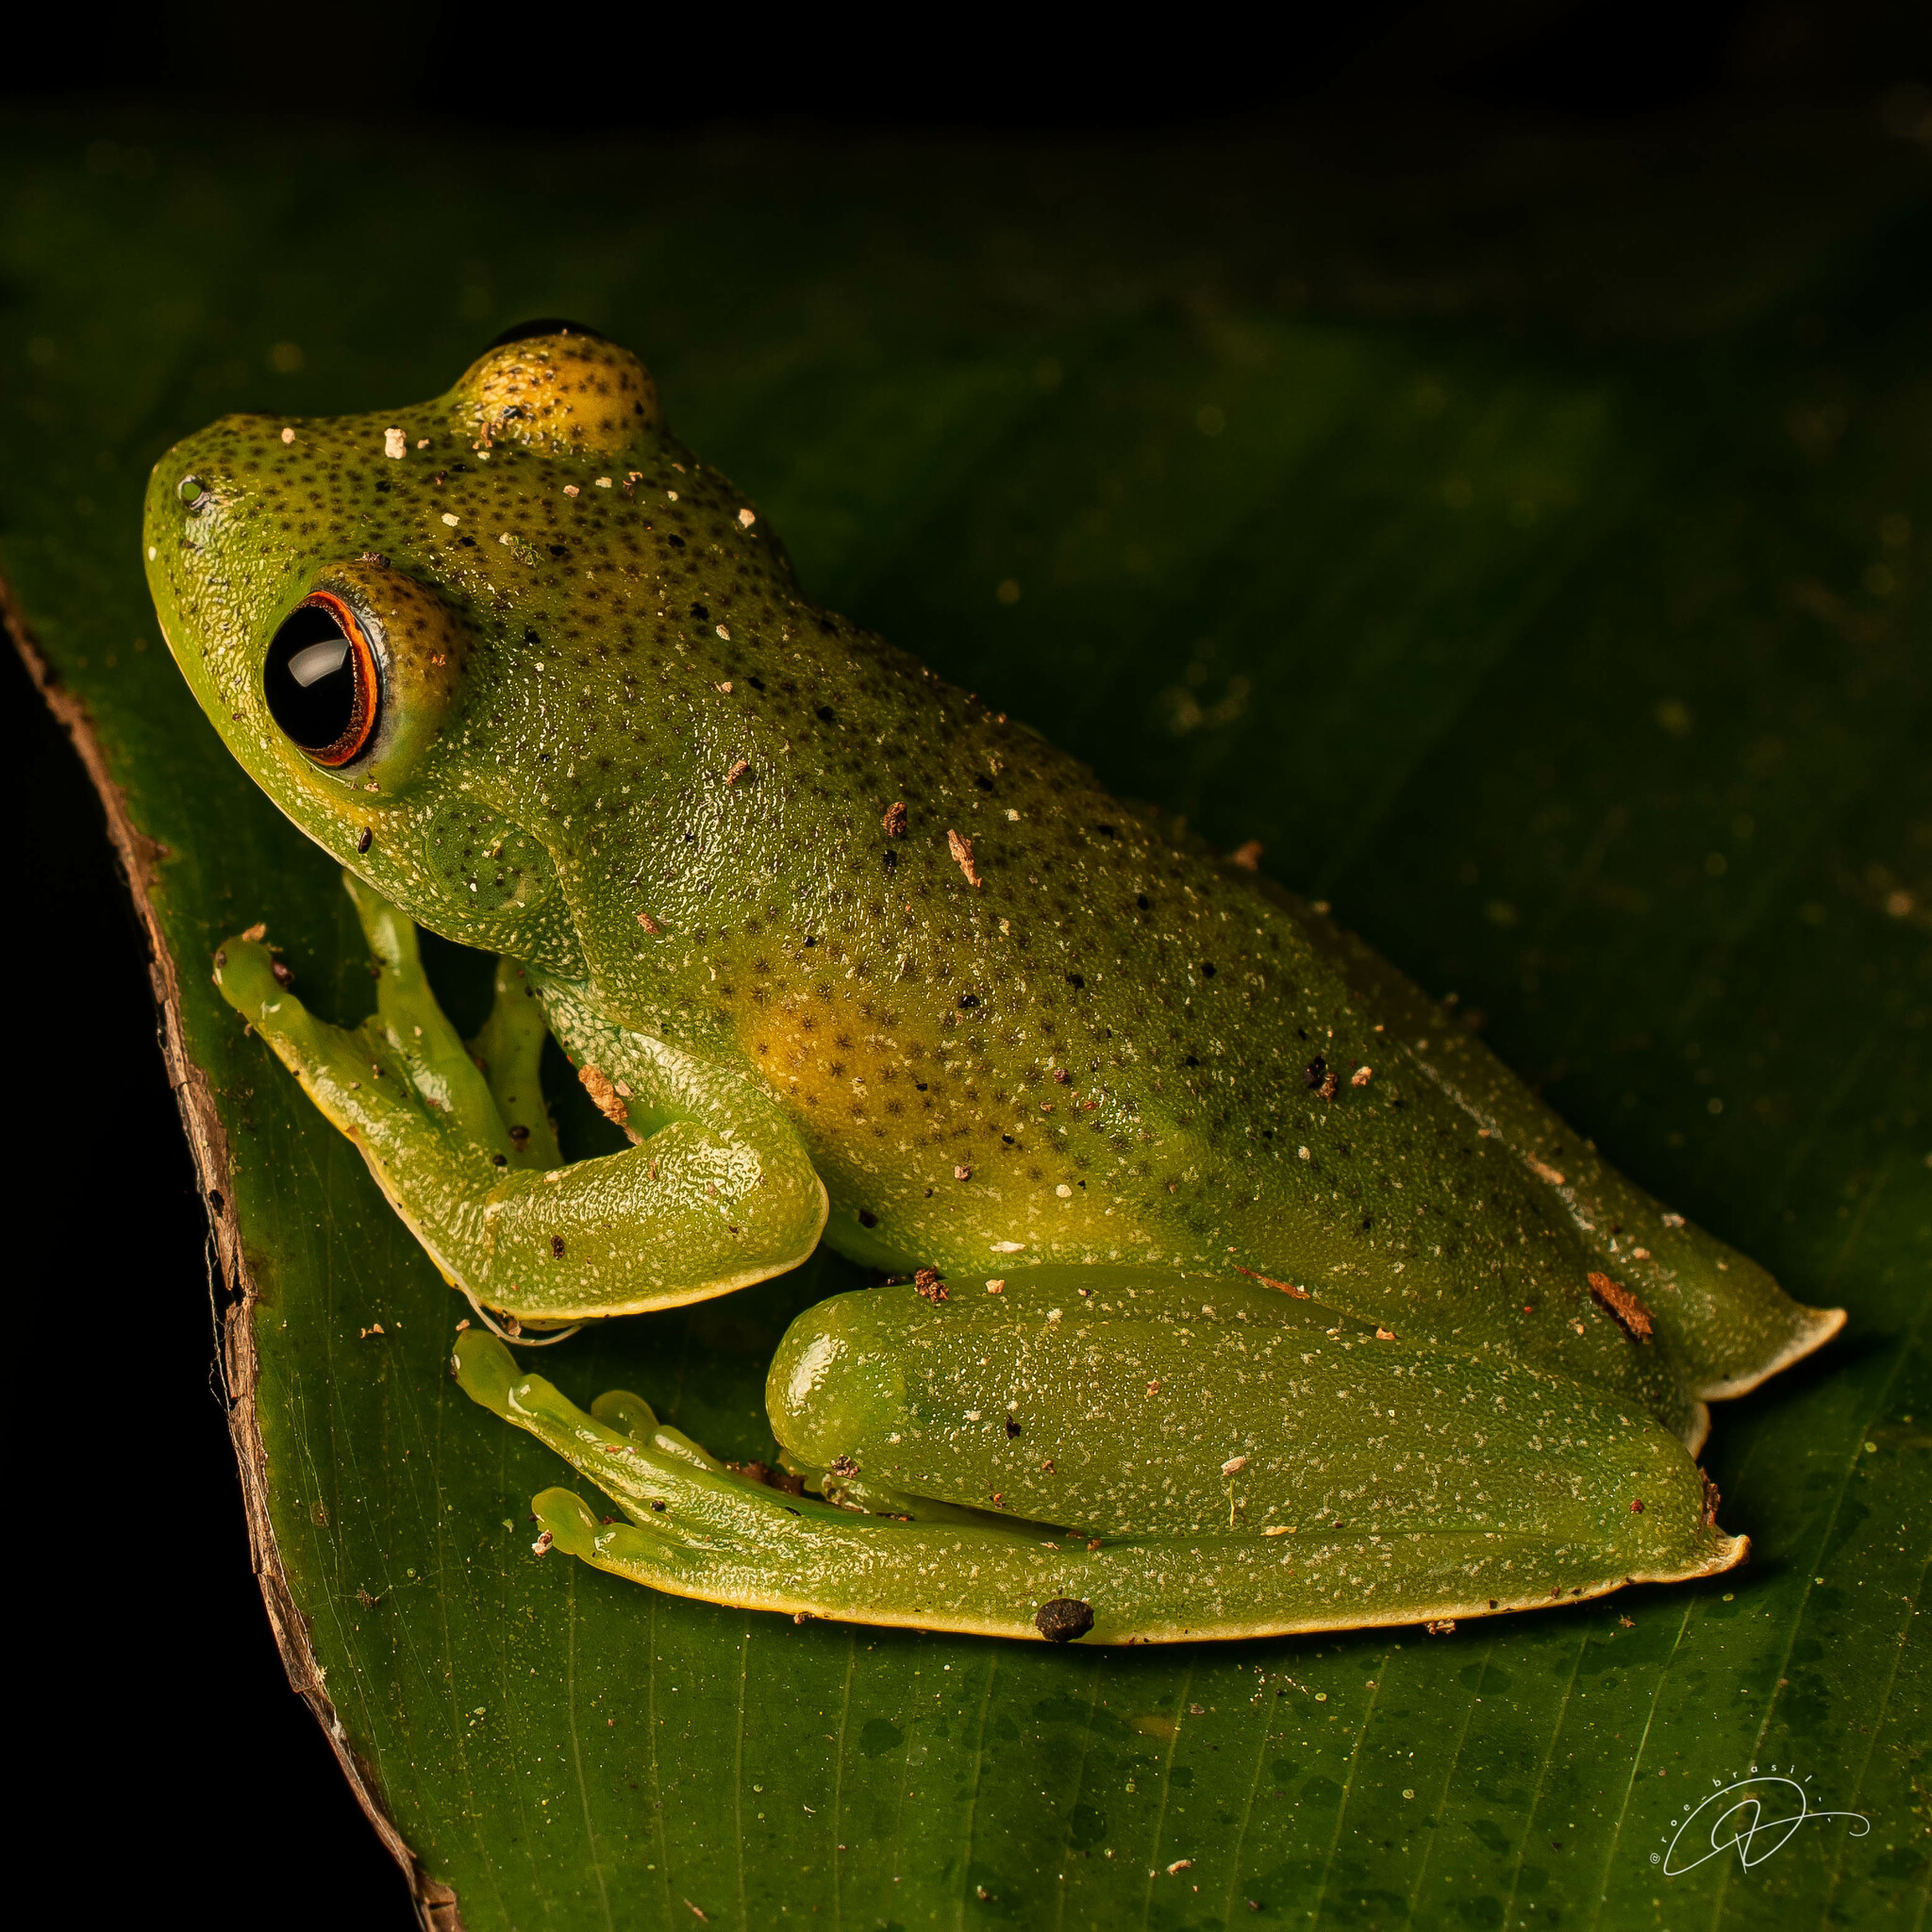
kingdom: Animalia
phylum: Chordata
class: Amphibia
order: Anura
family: Hylidae
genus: Aplastodiscus
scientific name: Aplastodiscus albosignatus
